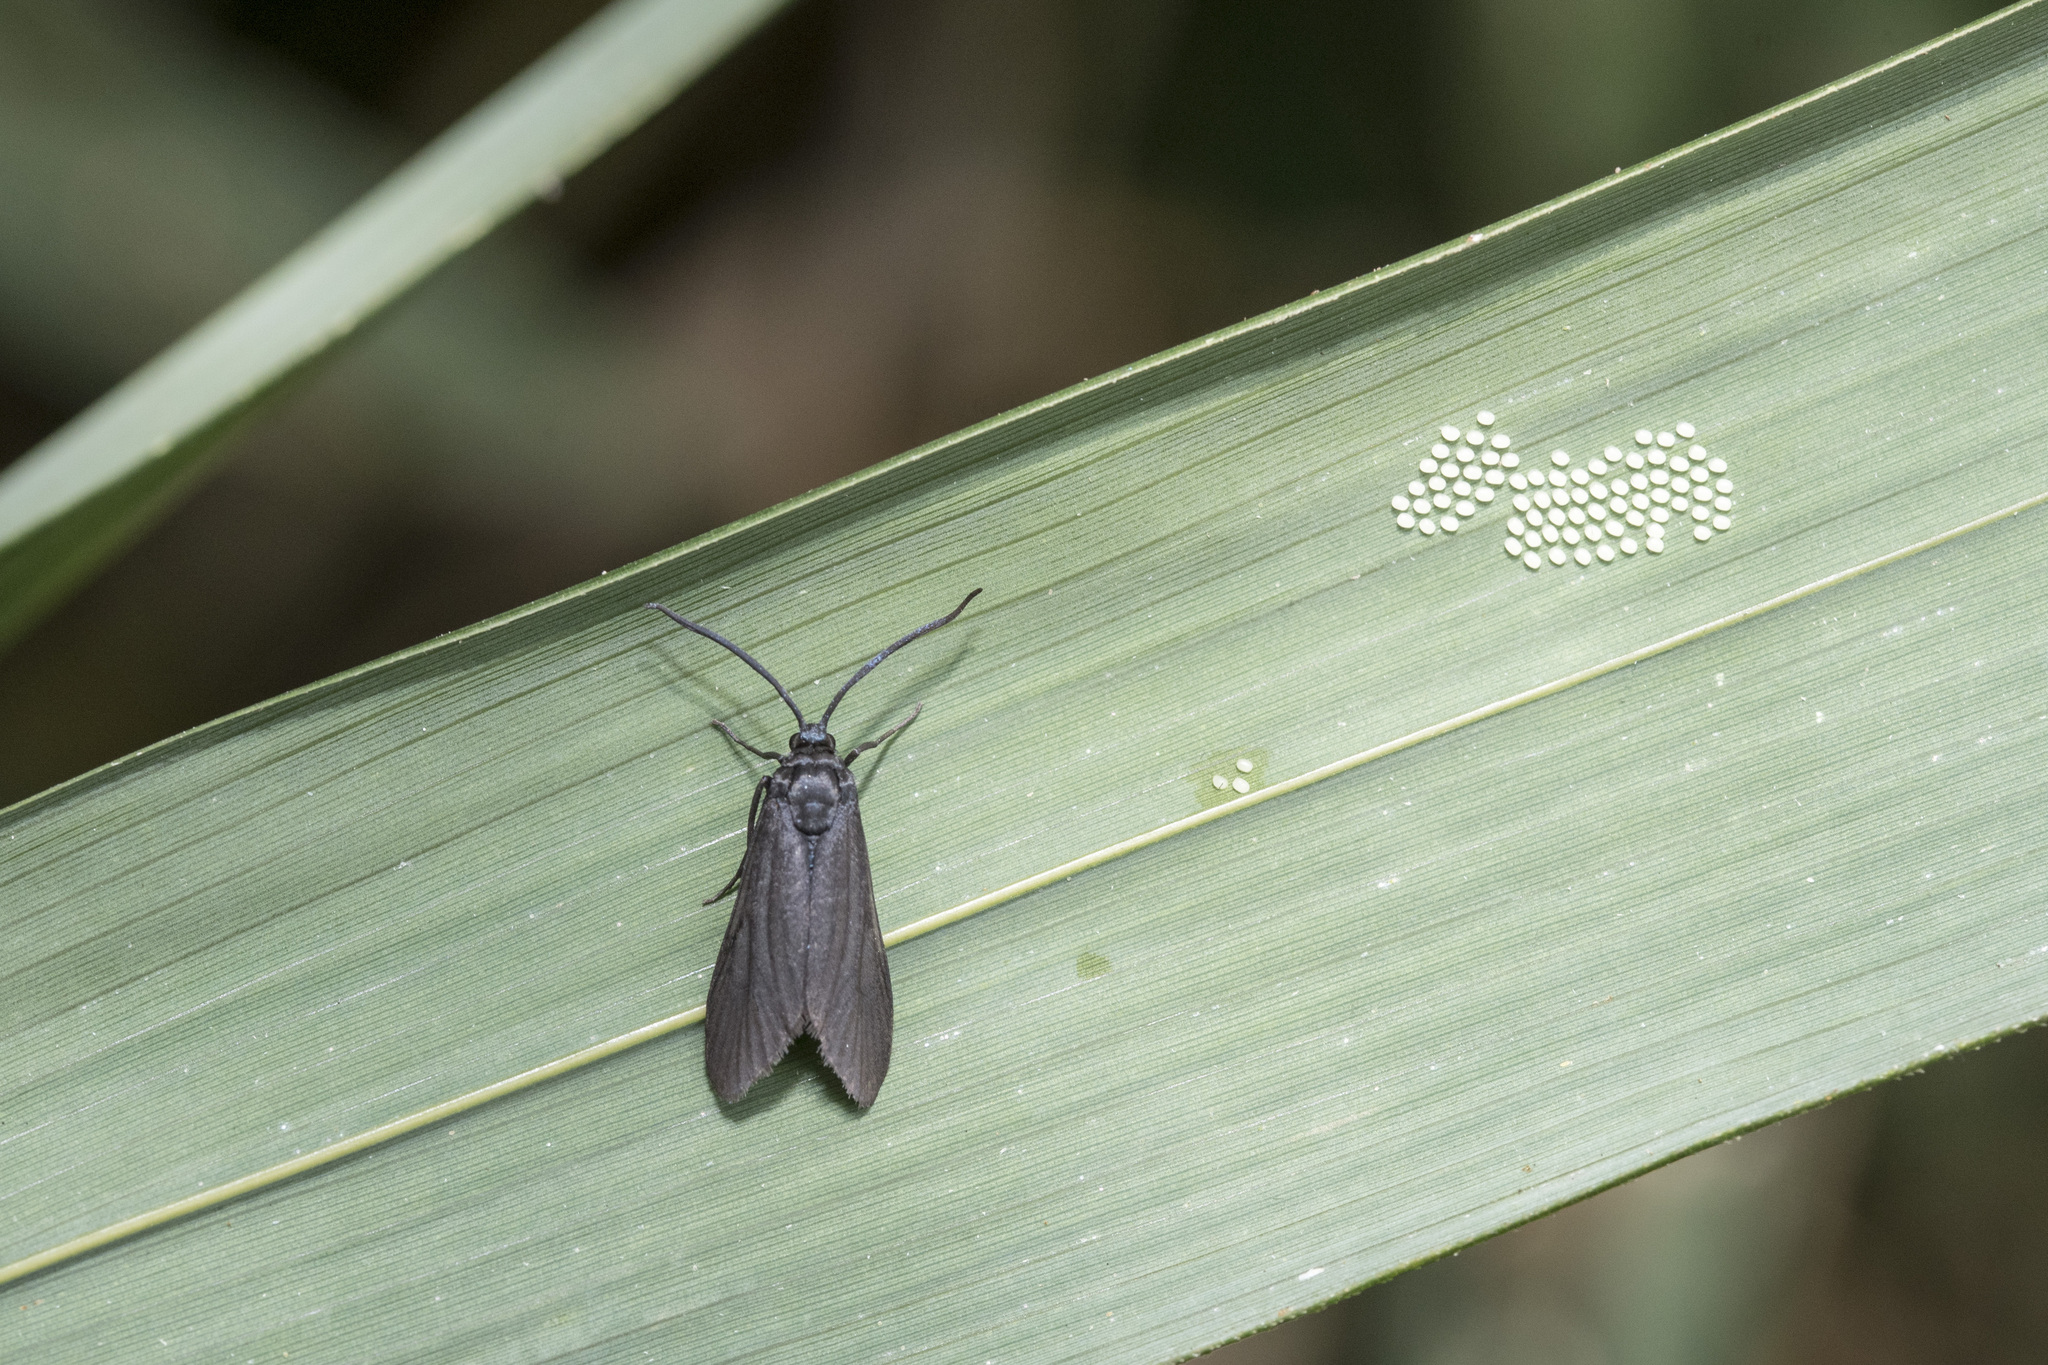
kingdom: Animalia
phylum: Arthropoda
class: Insecta
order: Lepidoptera
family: Zygaenidae
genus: Artona
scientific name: Artona martini
